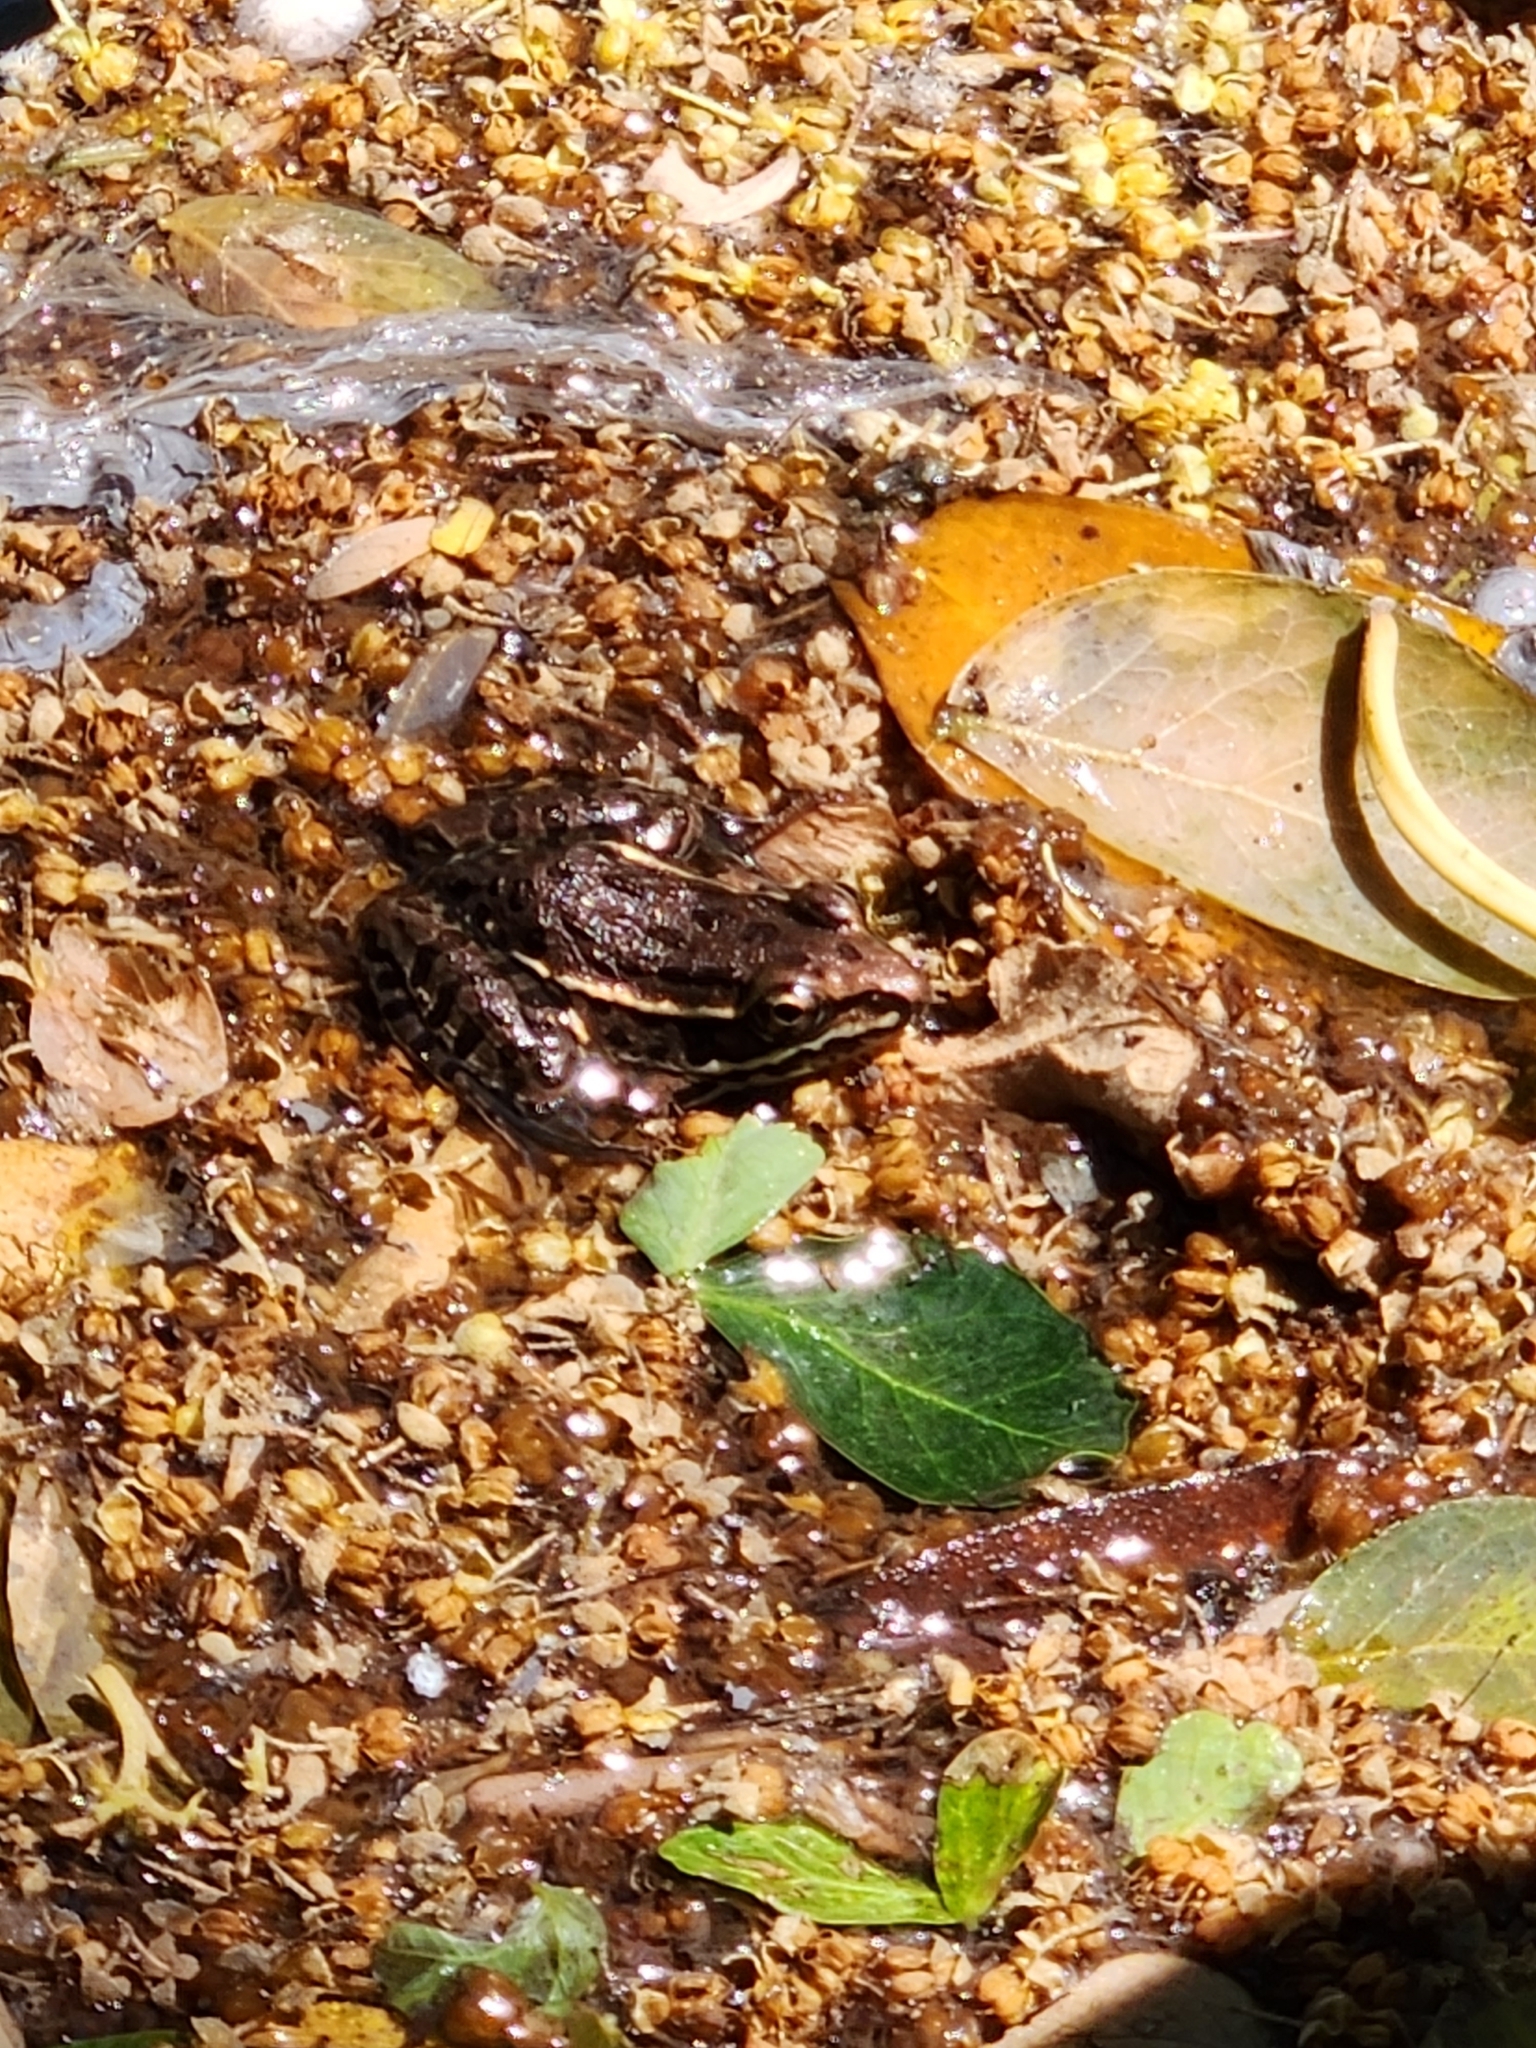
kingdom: Animalia
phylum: Chordata
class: Amphibia
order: Anura
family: Ranidae
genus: Lithobates
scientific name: Lithobates neovolcanicus
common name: Transverse volcanic leopard frog
